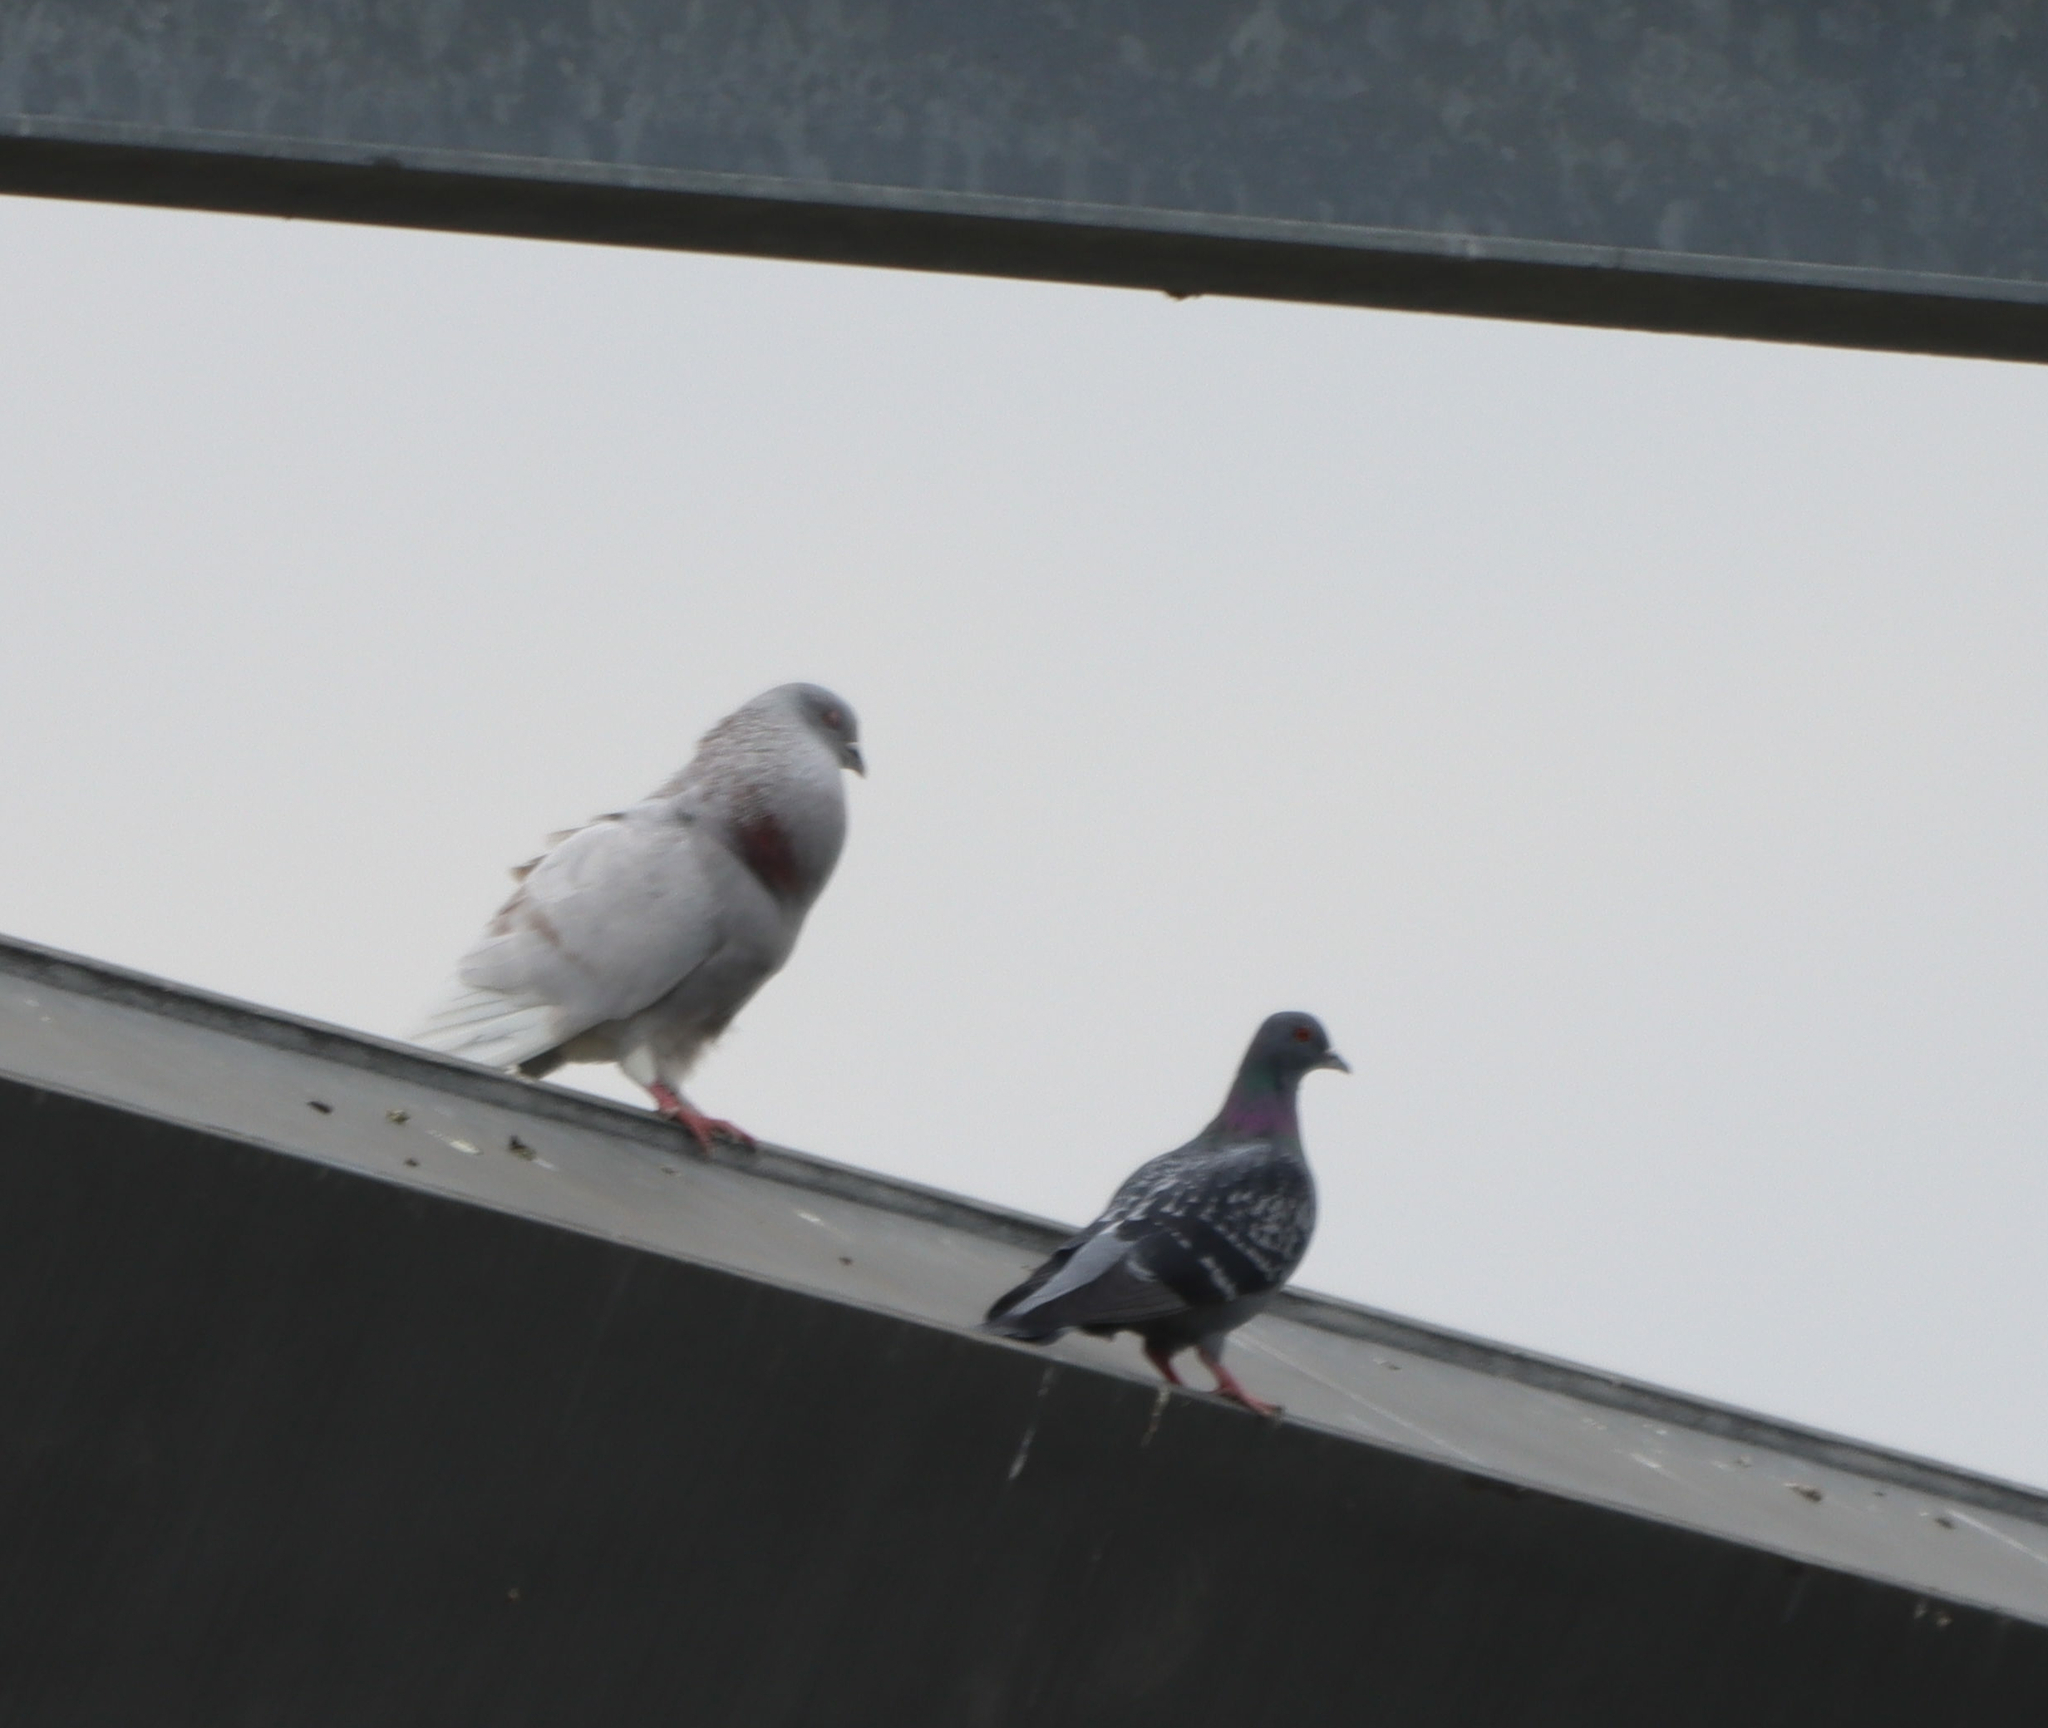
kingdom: Animalia
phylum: Chordata
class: Aves
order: Columbiformes
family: Columbidae
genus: Columba
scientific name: Columba livia
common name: Rock pigeon
